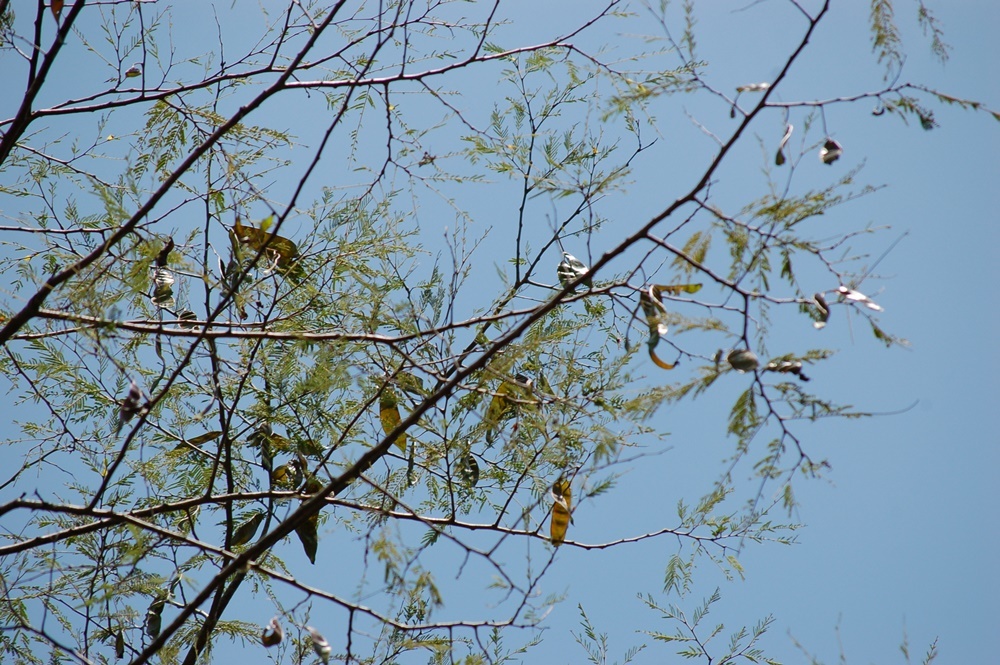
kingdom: Plantae
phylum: Tracheophyta
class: Magnoliopsida
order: Fabales
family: Fabaceae
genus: Lysiloma
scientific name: Lysiloma divaricatum
